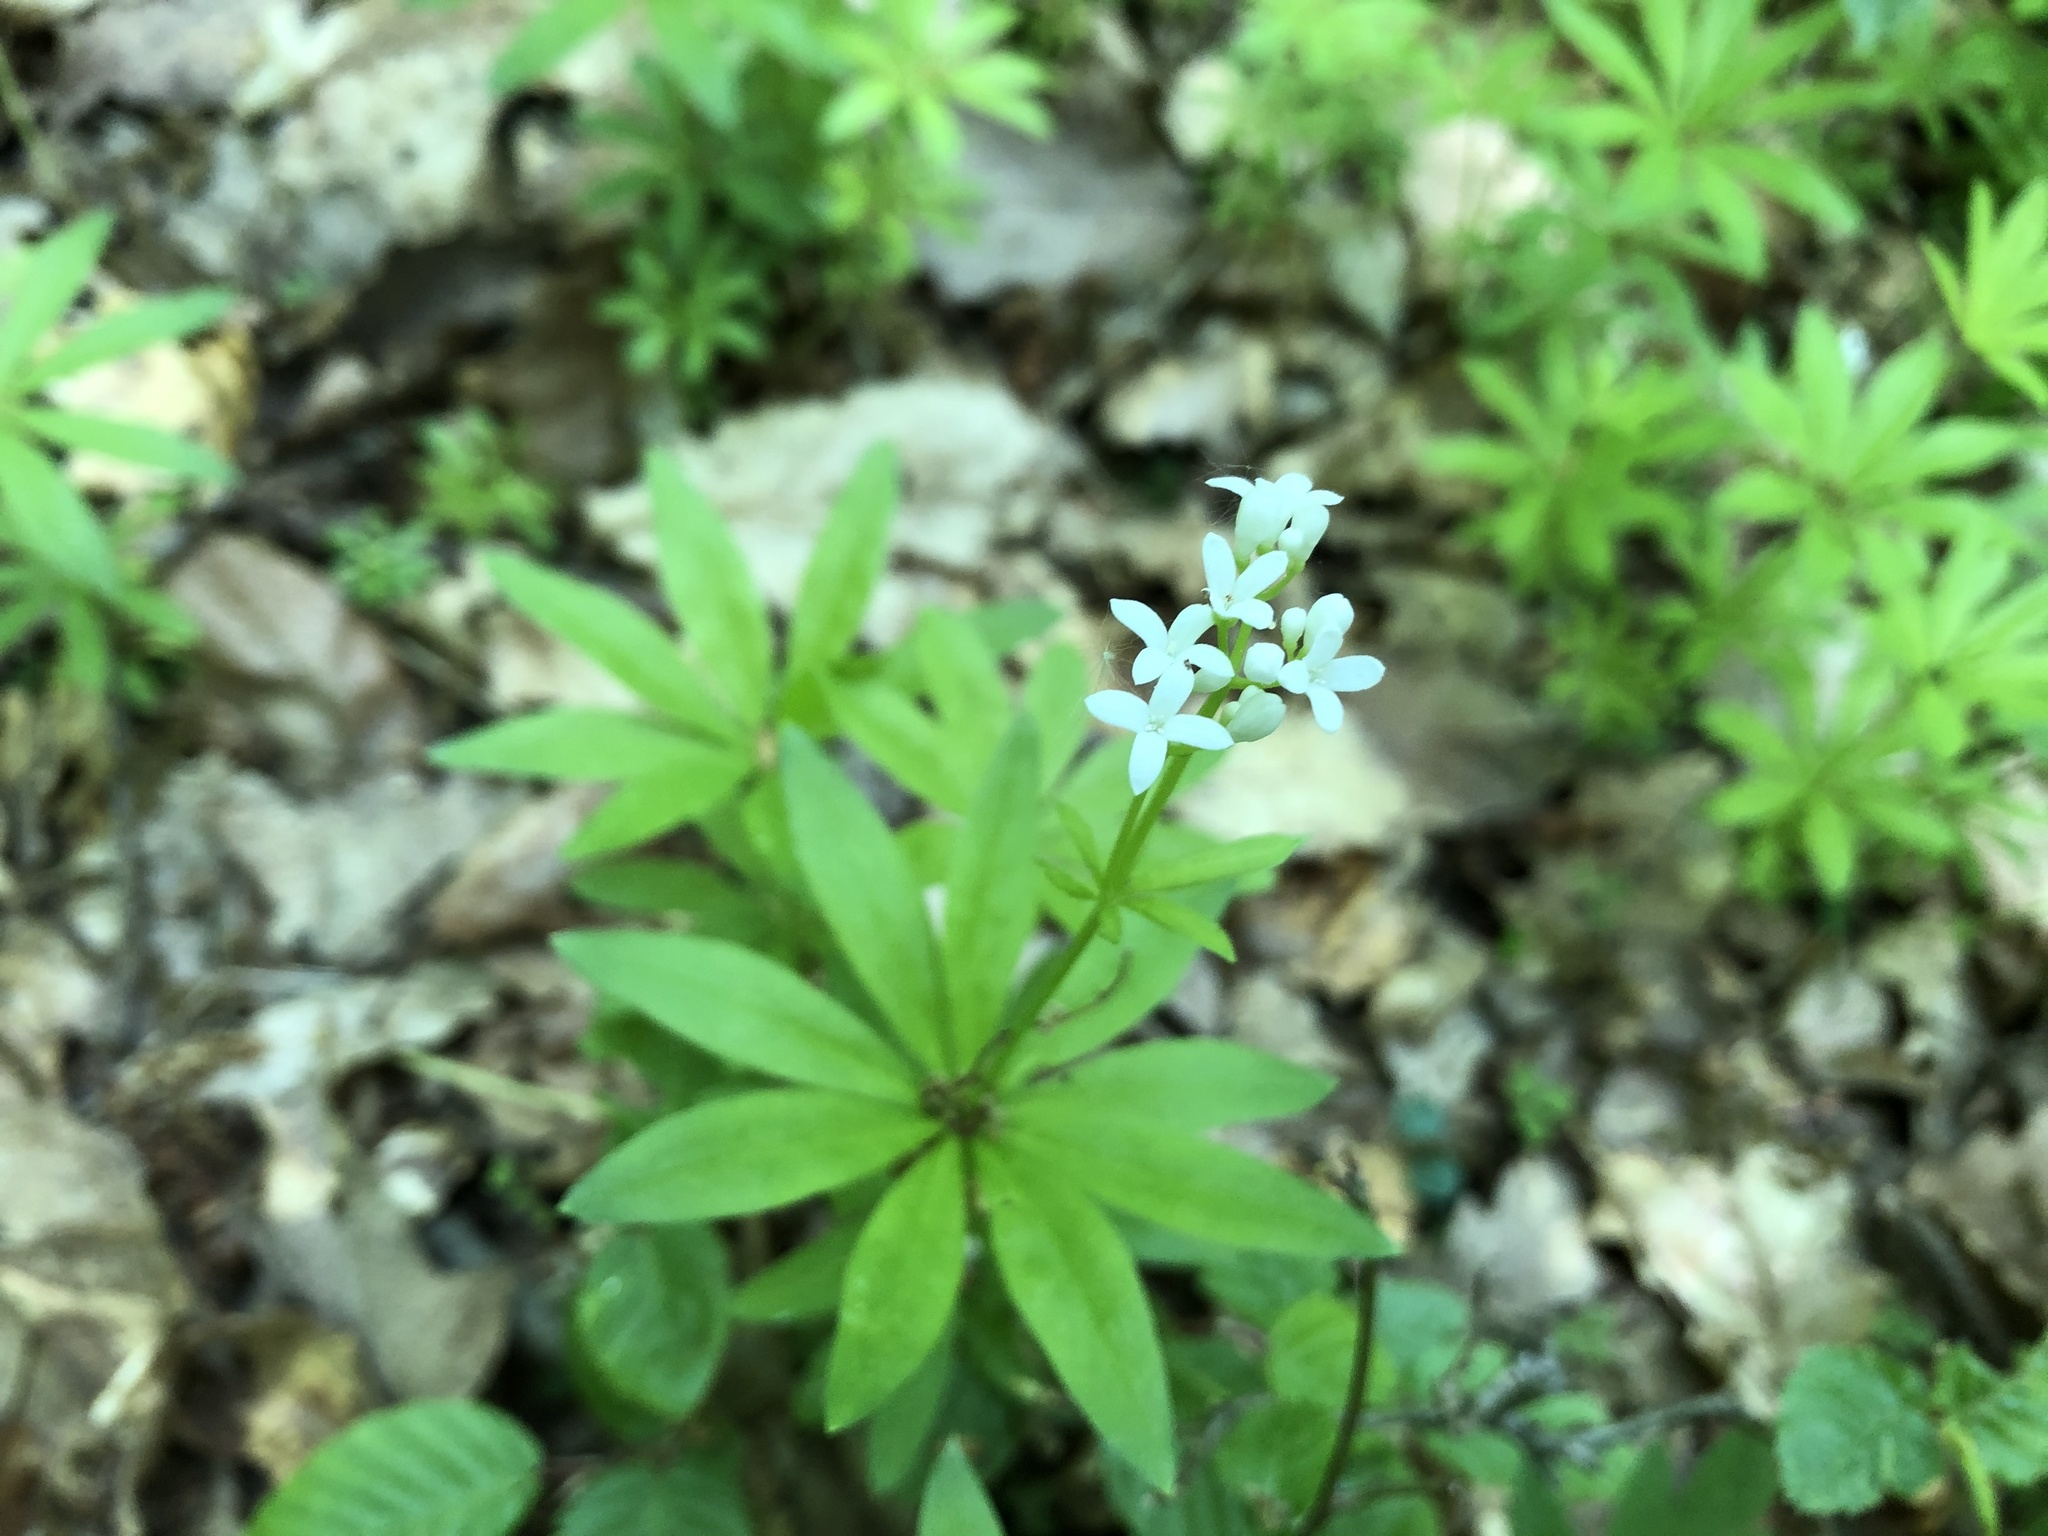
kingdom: Plantae
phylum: Tracheophyta
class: Magnoliopsida
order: Gentianales
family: Rubiaceae
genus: Galium
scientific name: Galium odoratum
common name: Sweet woodruff
